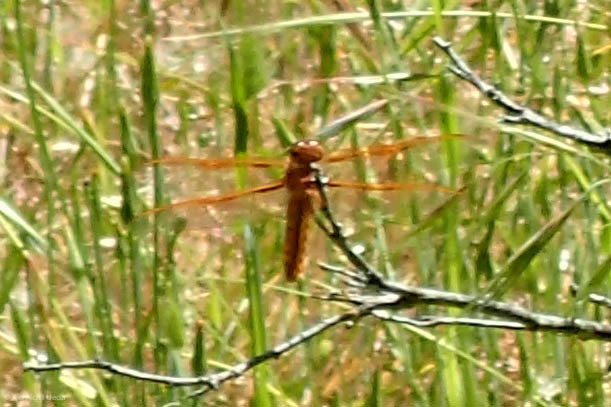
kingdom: Animalia
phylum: Arthropoda
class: Insecta
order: Odonata
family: Libellulidae
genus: Libellula
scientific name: Libellula saturata
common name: Flame skimmer
